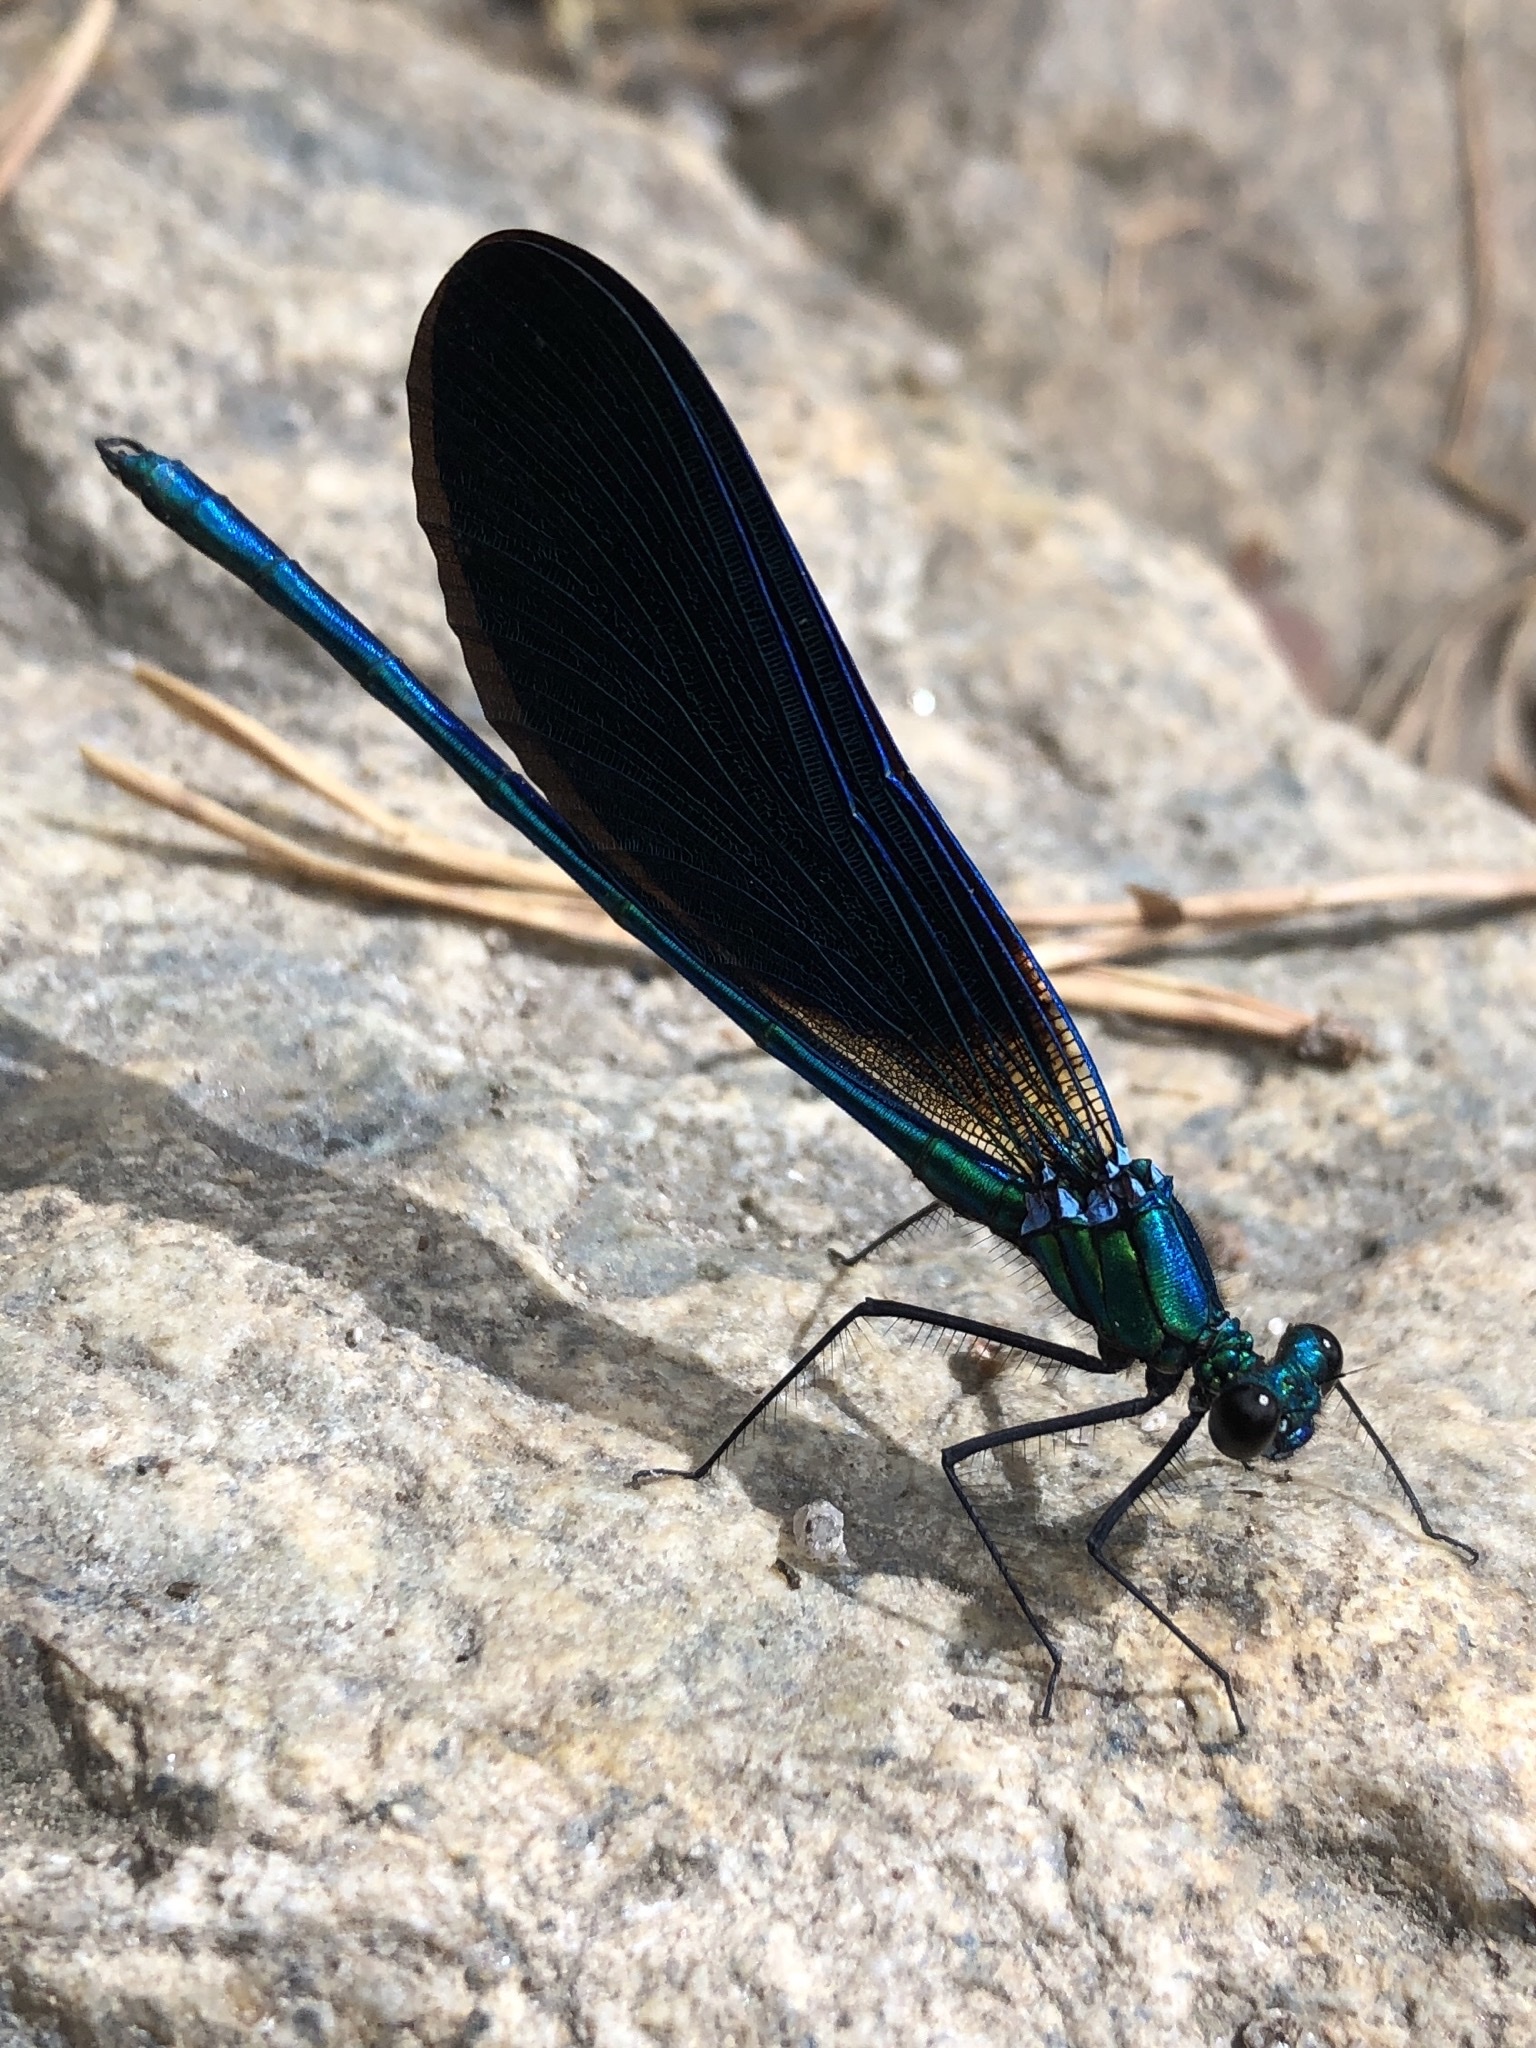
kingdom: Animalia
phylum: Arthropoda
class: Insecta
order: Odonata
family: Calopterygidae
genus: Calopteryx
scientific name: Calopteryx virgo
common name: Beautiful demoiselle
